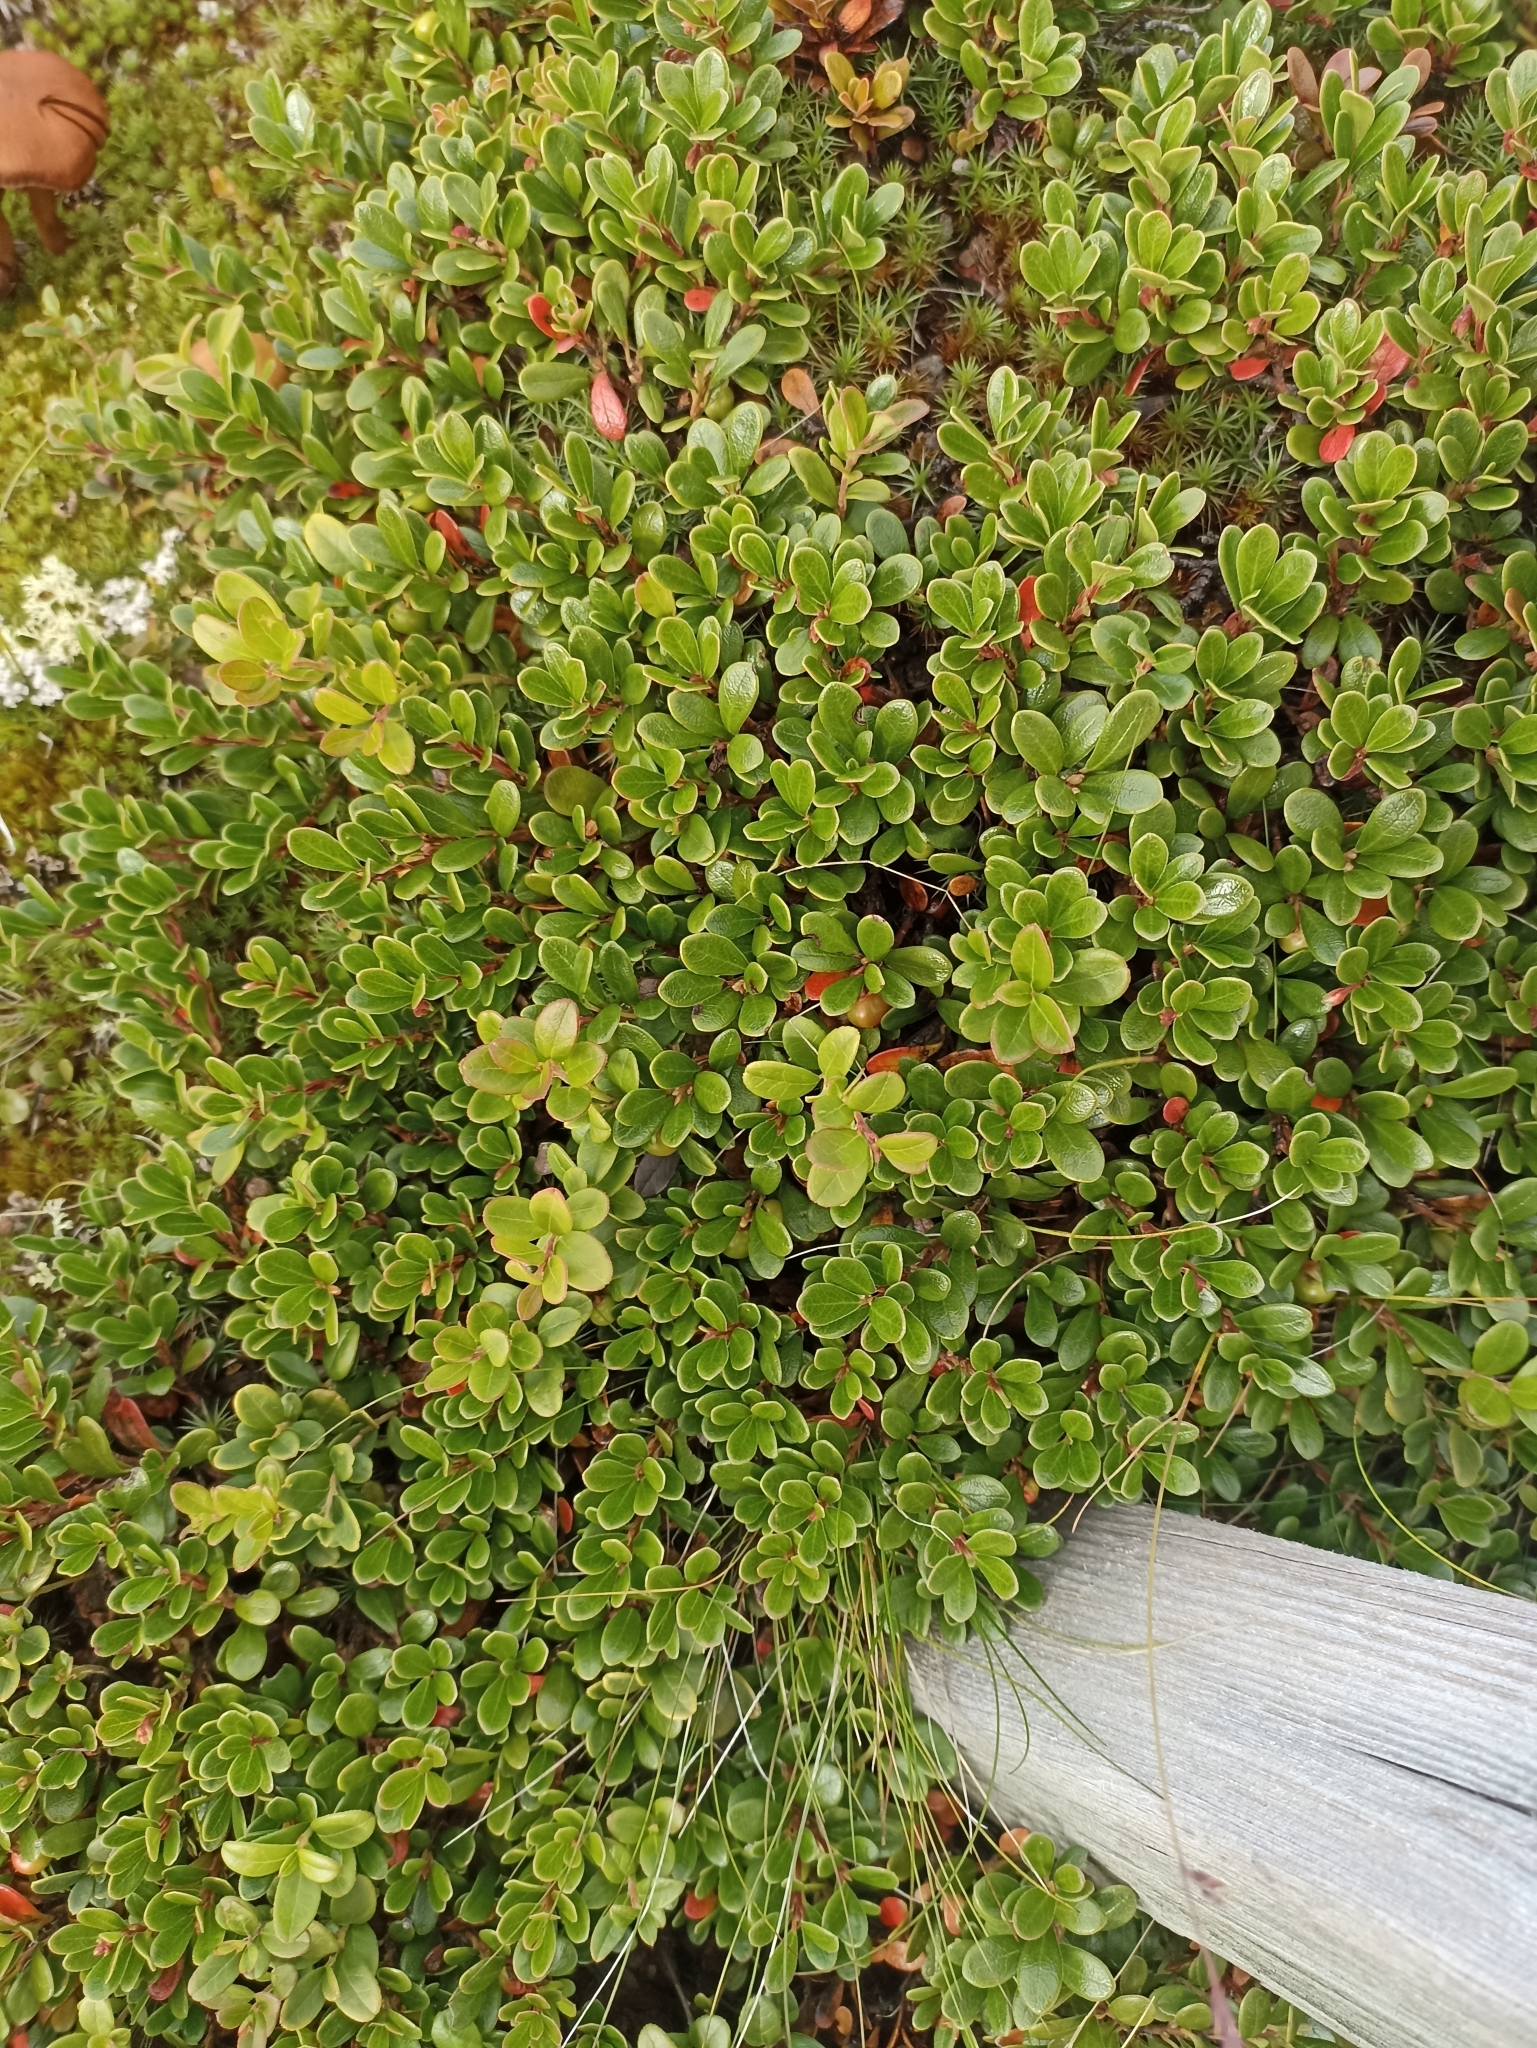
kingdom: Plantae
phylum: Tracheophyta
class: Magnoliopsida
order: Ericales
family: Ericaceae
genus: Arctostaphylos
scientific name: Arctostaphylos uva-ursi
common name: Bearberry
